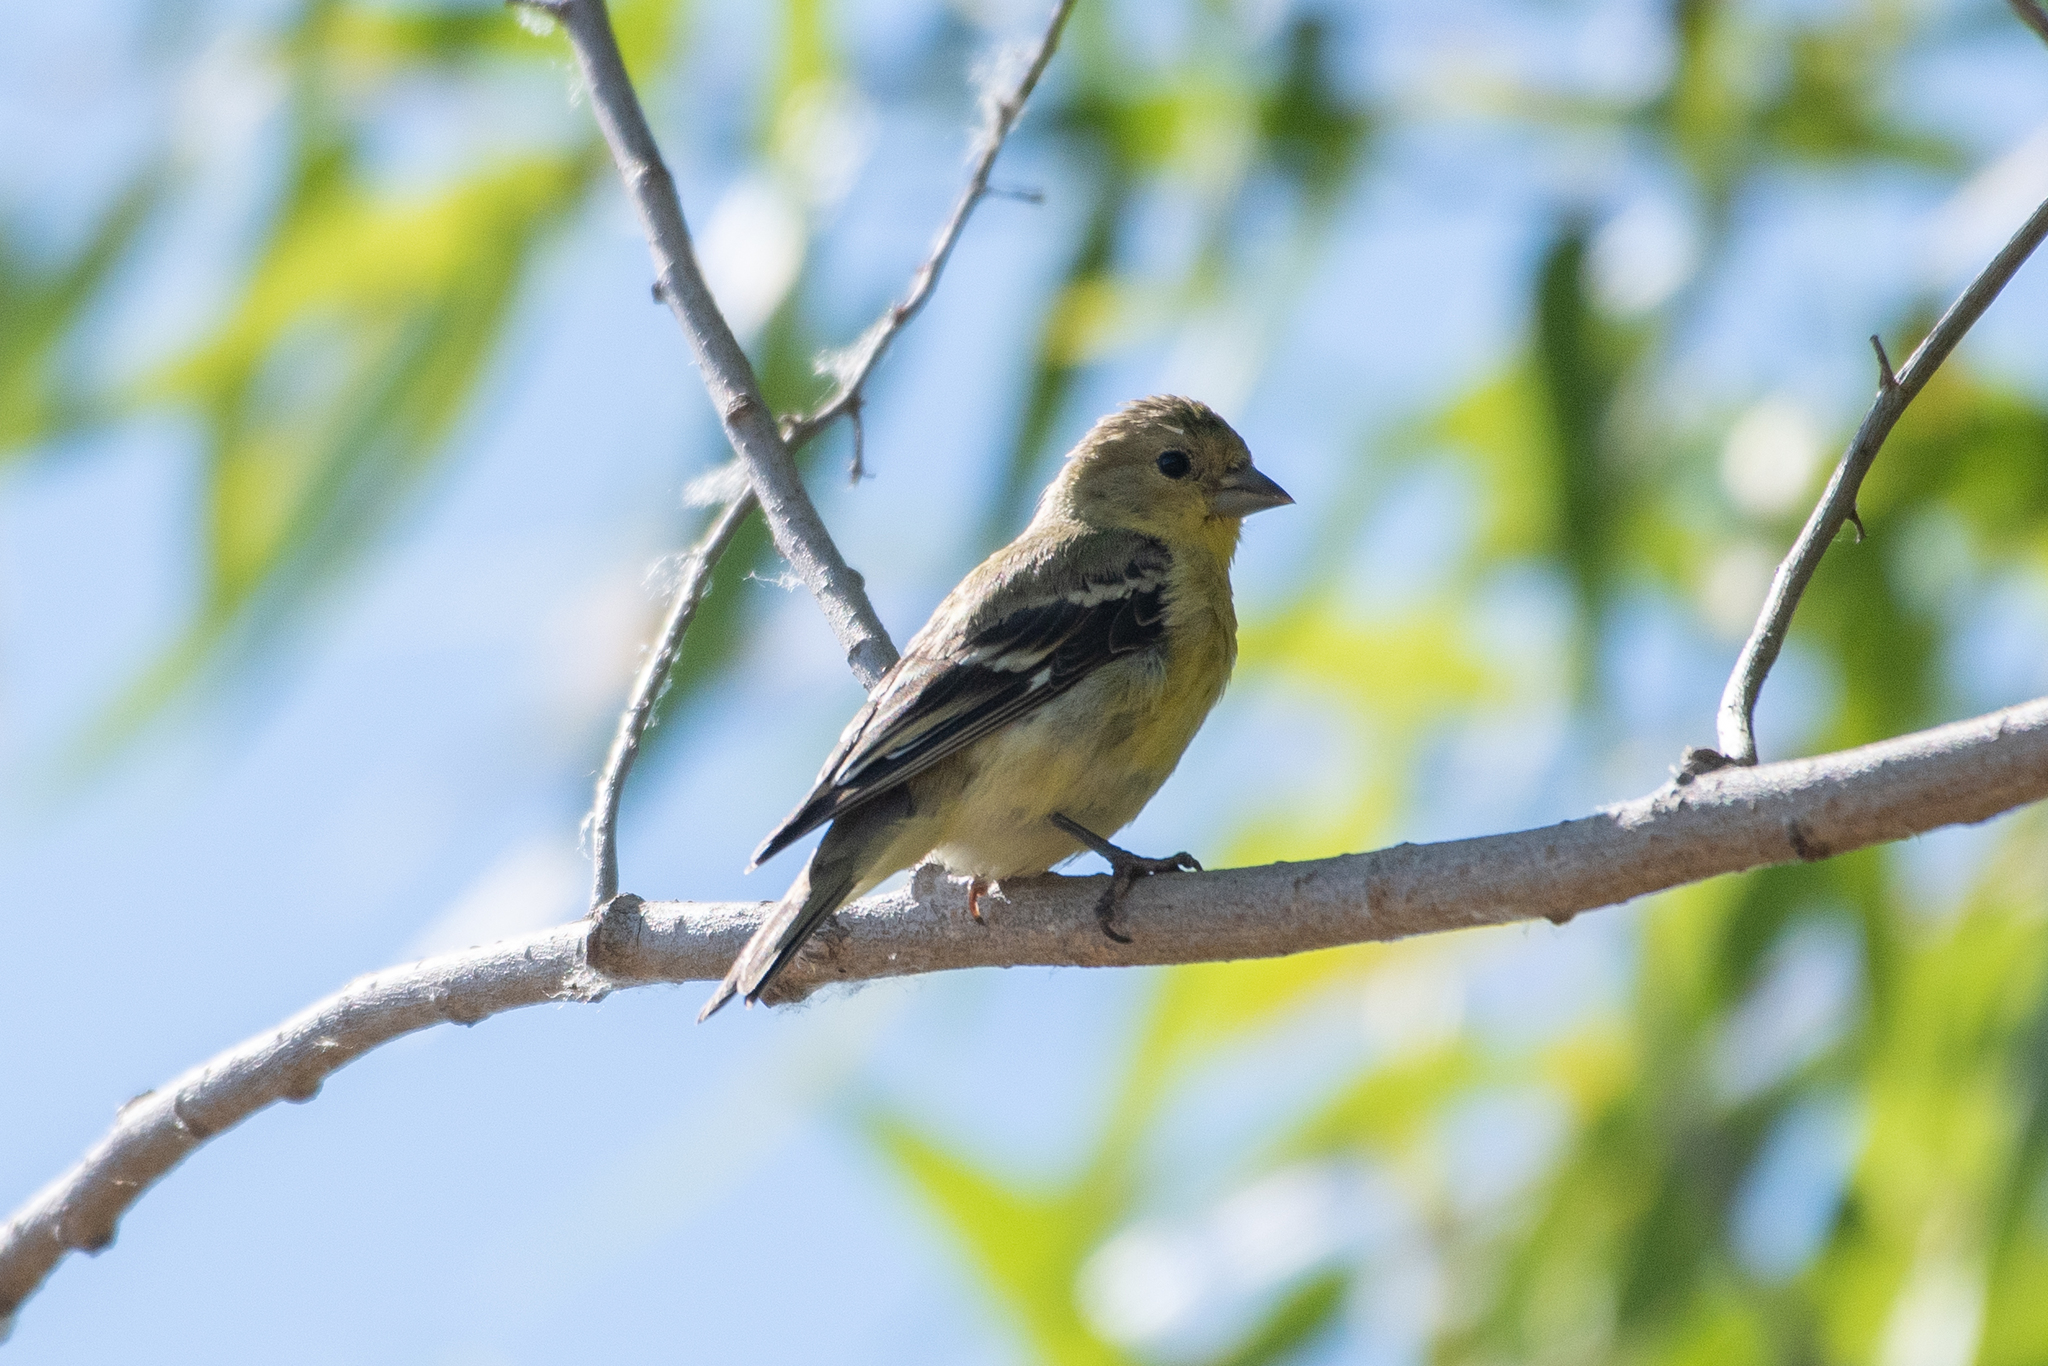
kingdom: Animalia
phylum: Chordata
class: Aves
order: Passeriformes
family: Fringillidae
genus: Spinus
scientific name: Spinus psaltria
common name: Lesser goldfinch
